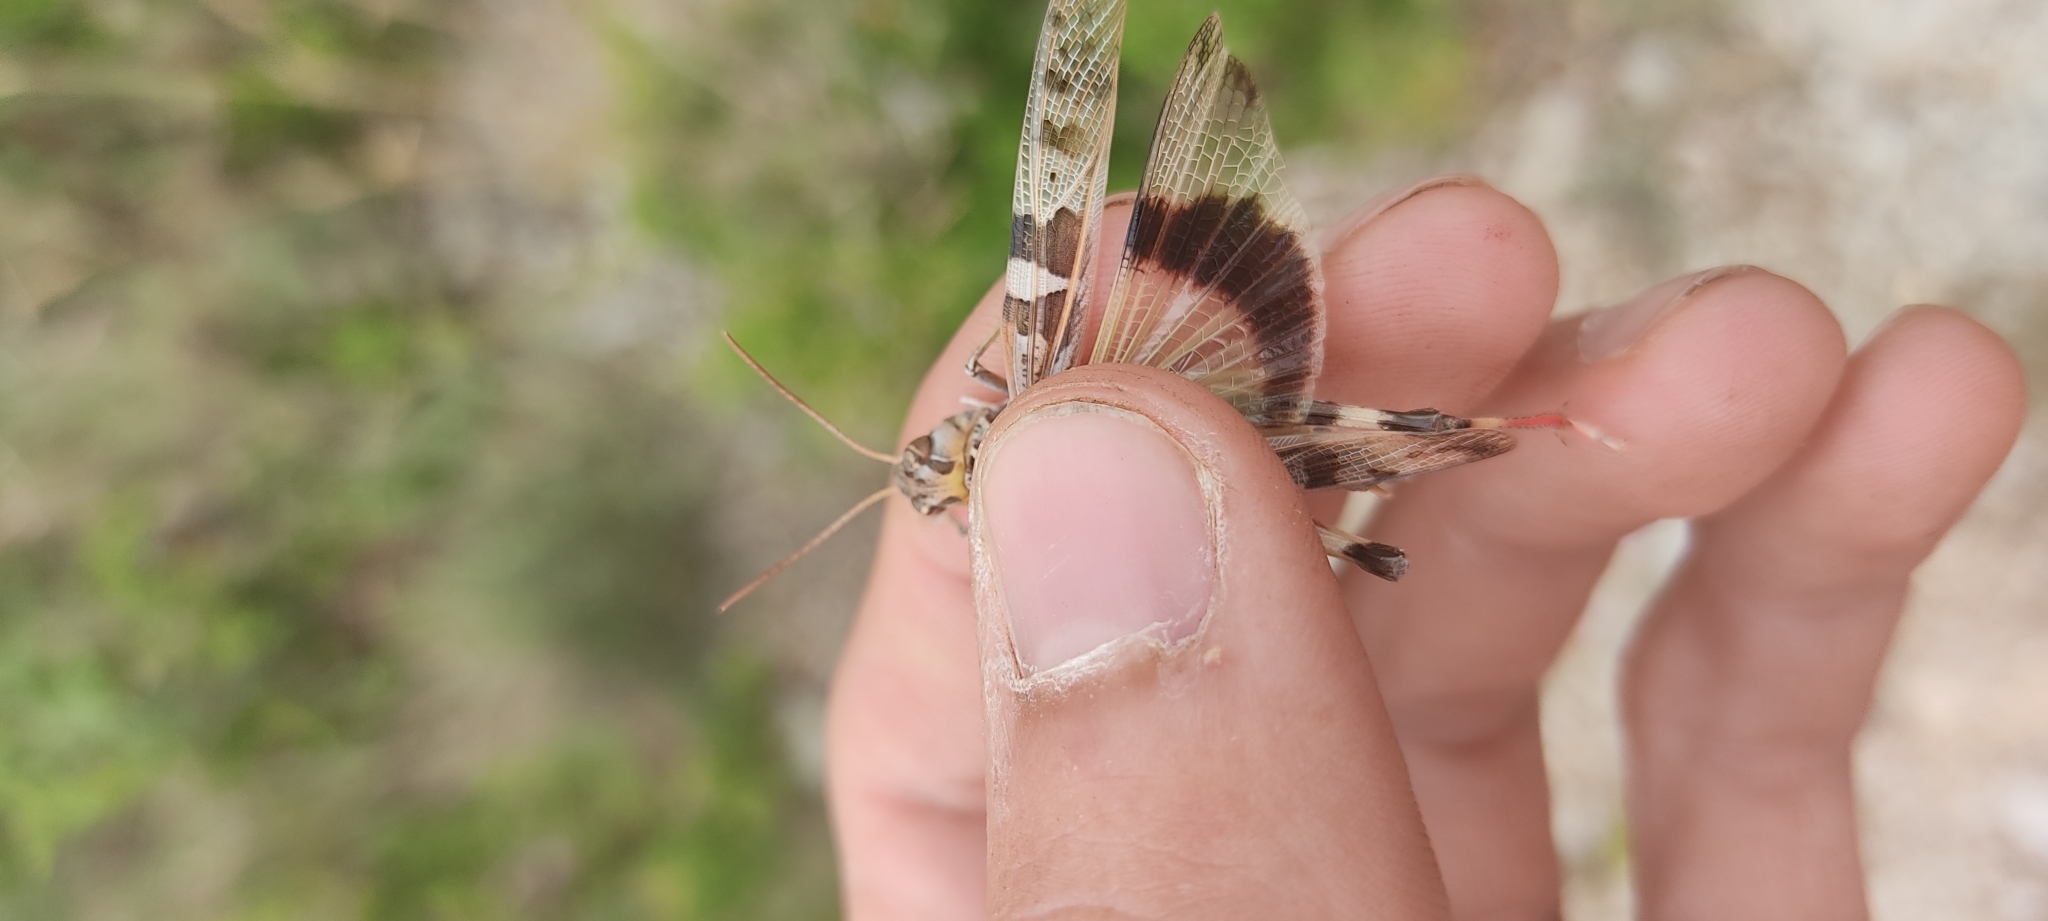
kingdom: Animalia
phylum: Arthropoda
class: Insecta
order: Orthoptera
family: Acrididae
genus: Oedaleus
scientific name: Oedaleus decorus
